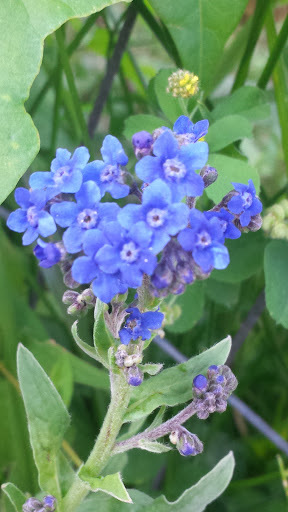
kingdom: Plantae
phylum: Tracheophyta
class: Magnoliopsida
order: Boraginales
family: Boraginaceae
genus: Cynoglossum
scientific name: Cynoglossum amabile
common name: Chinese hound's tongue
